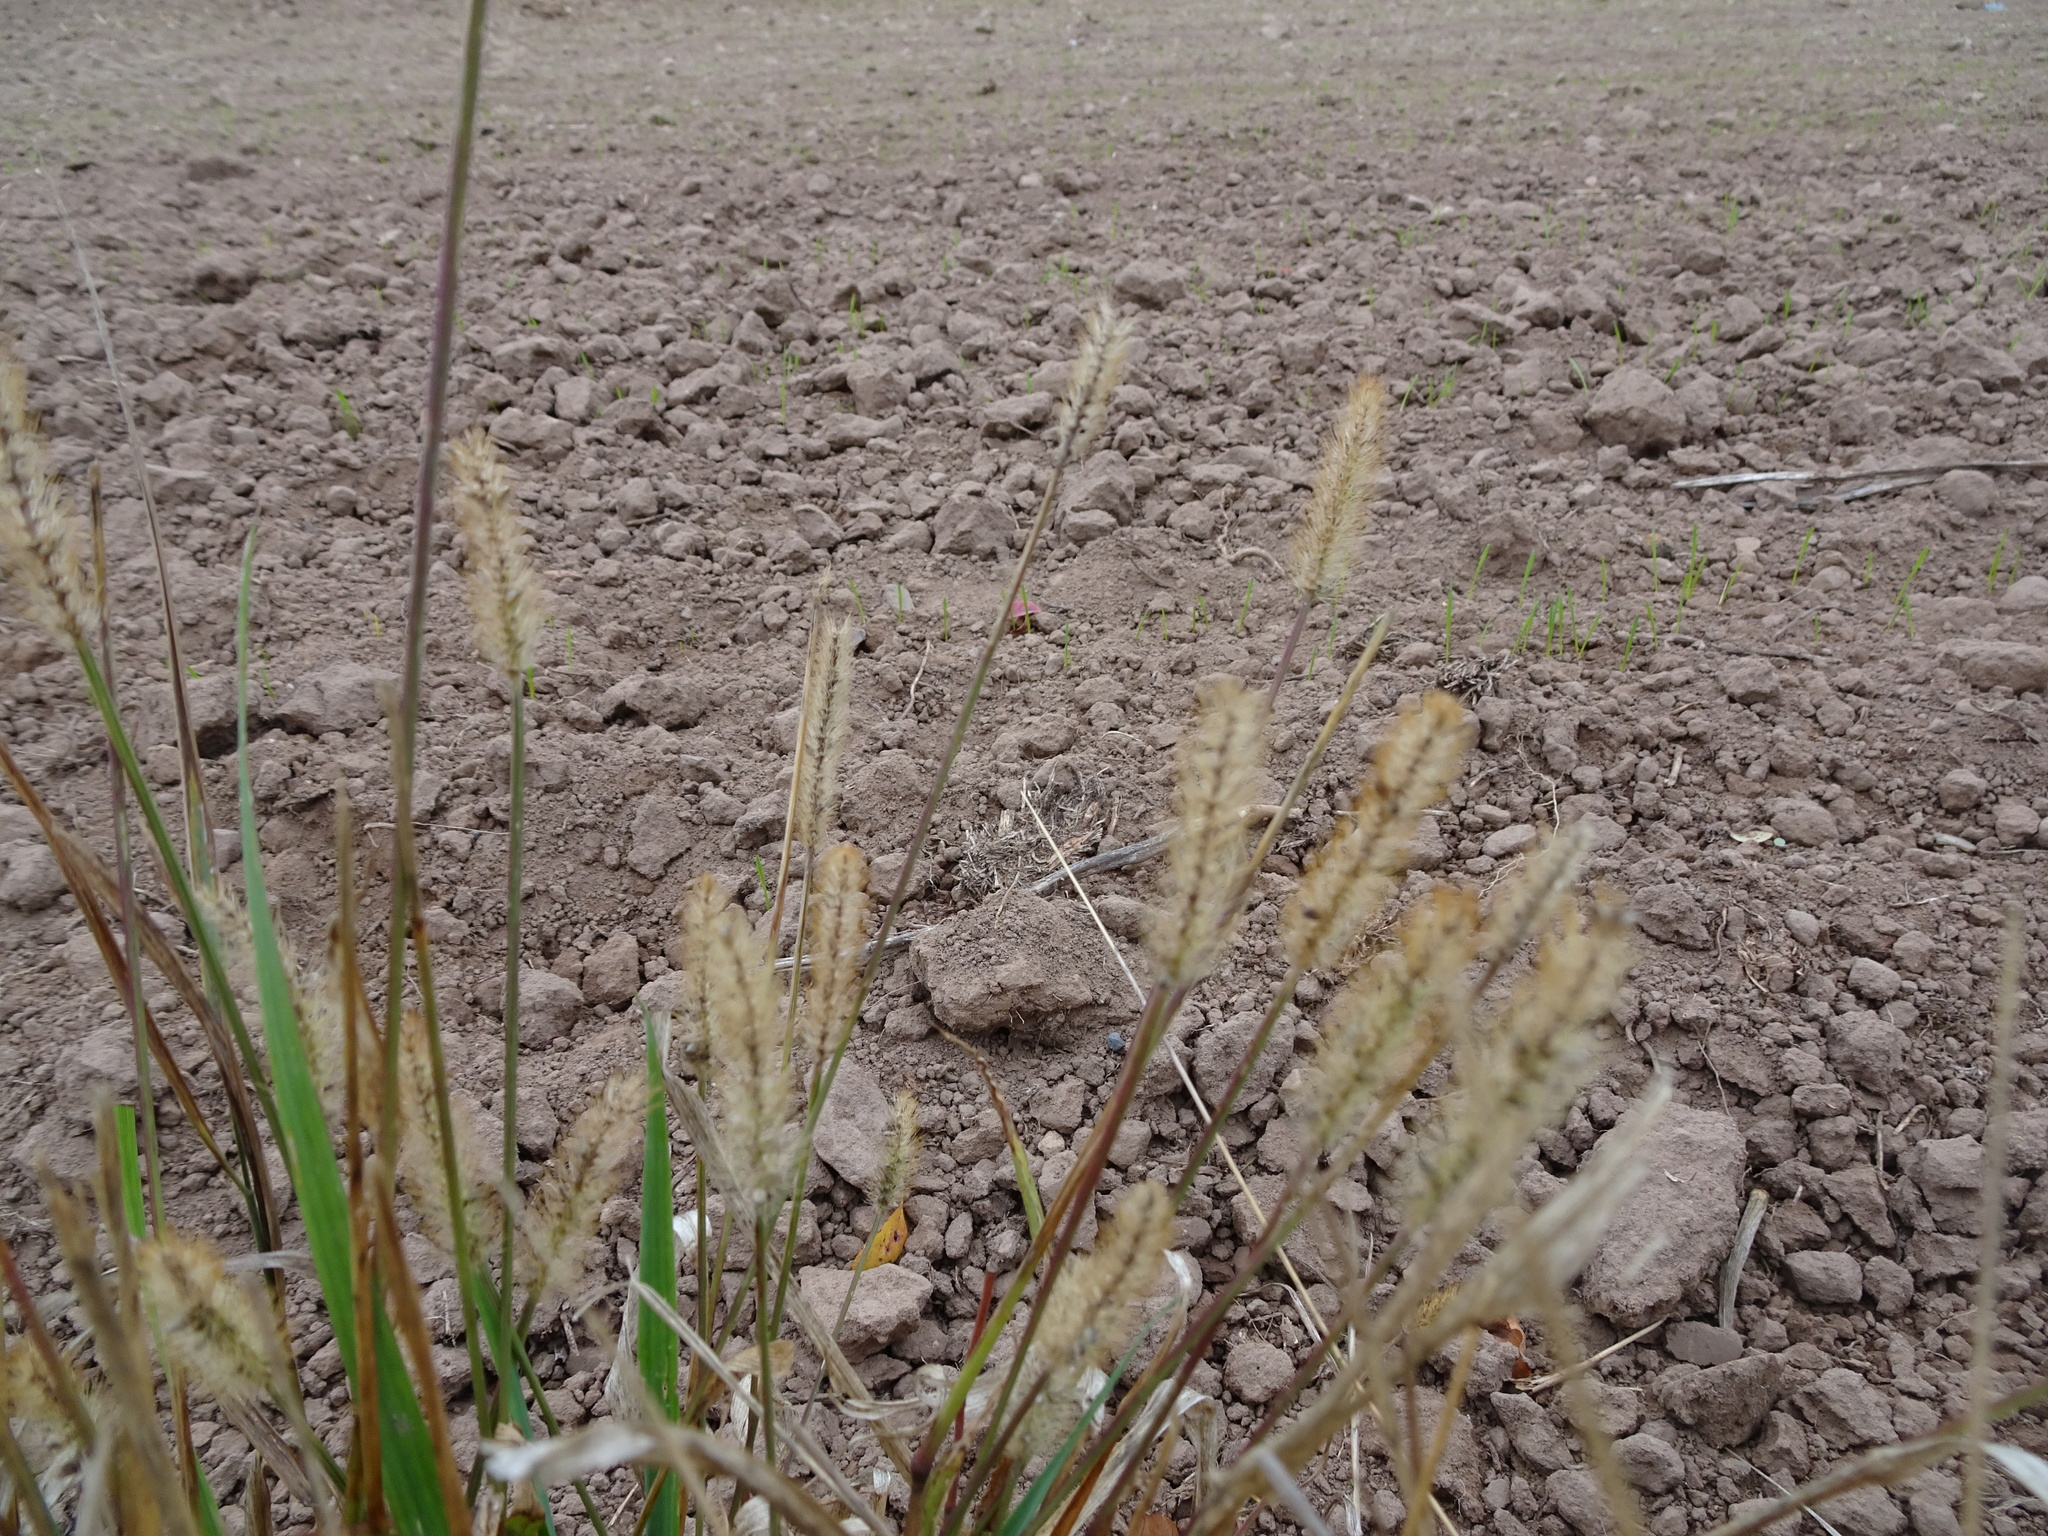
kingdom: Plantae
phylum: Tracheophyta
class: Liliopsida
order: Poales
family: Poaceae
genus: Setaria
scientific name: Setaria pumila
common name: Yellow bristle-grass
